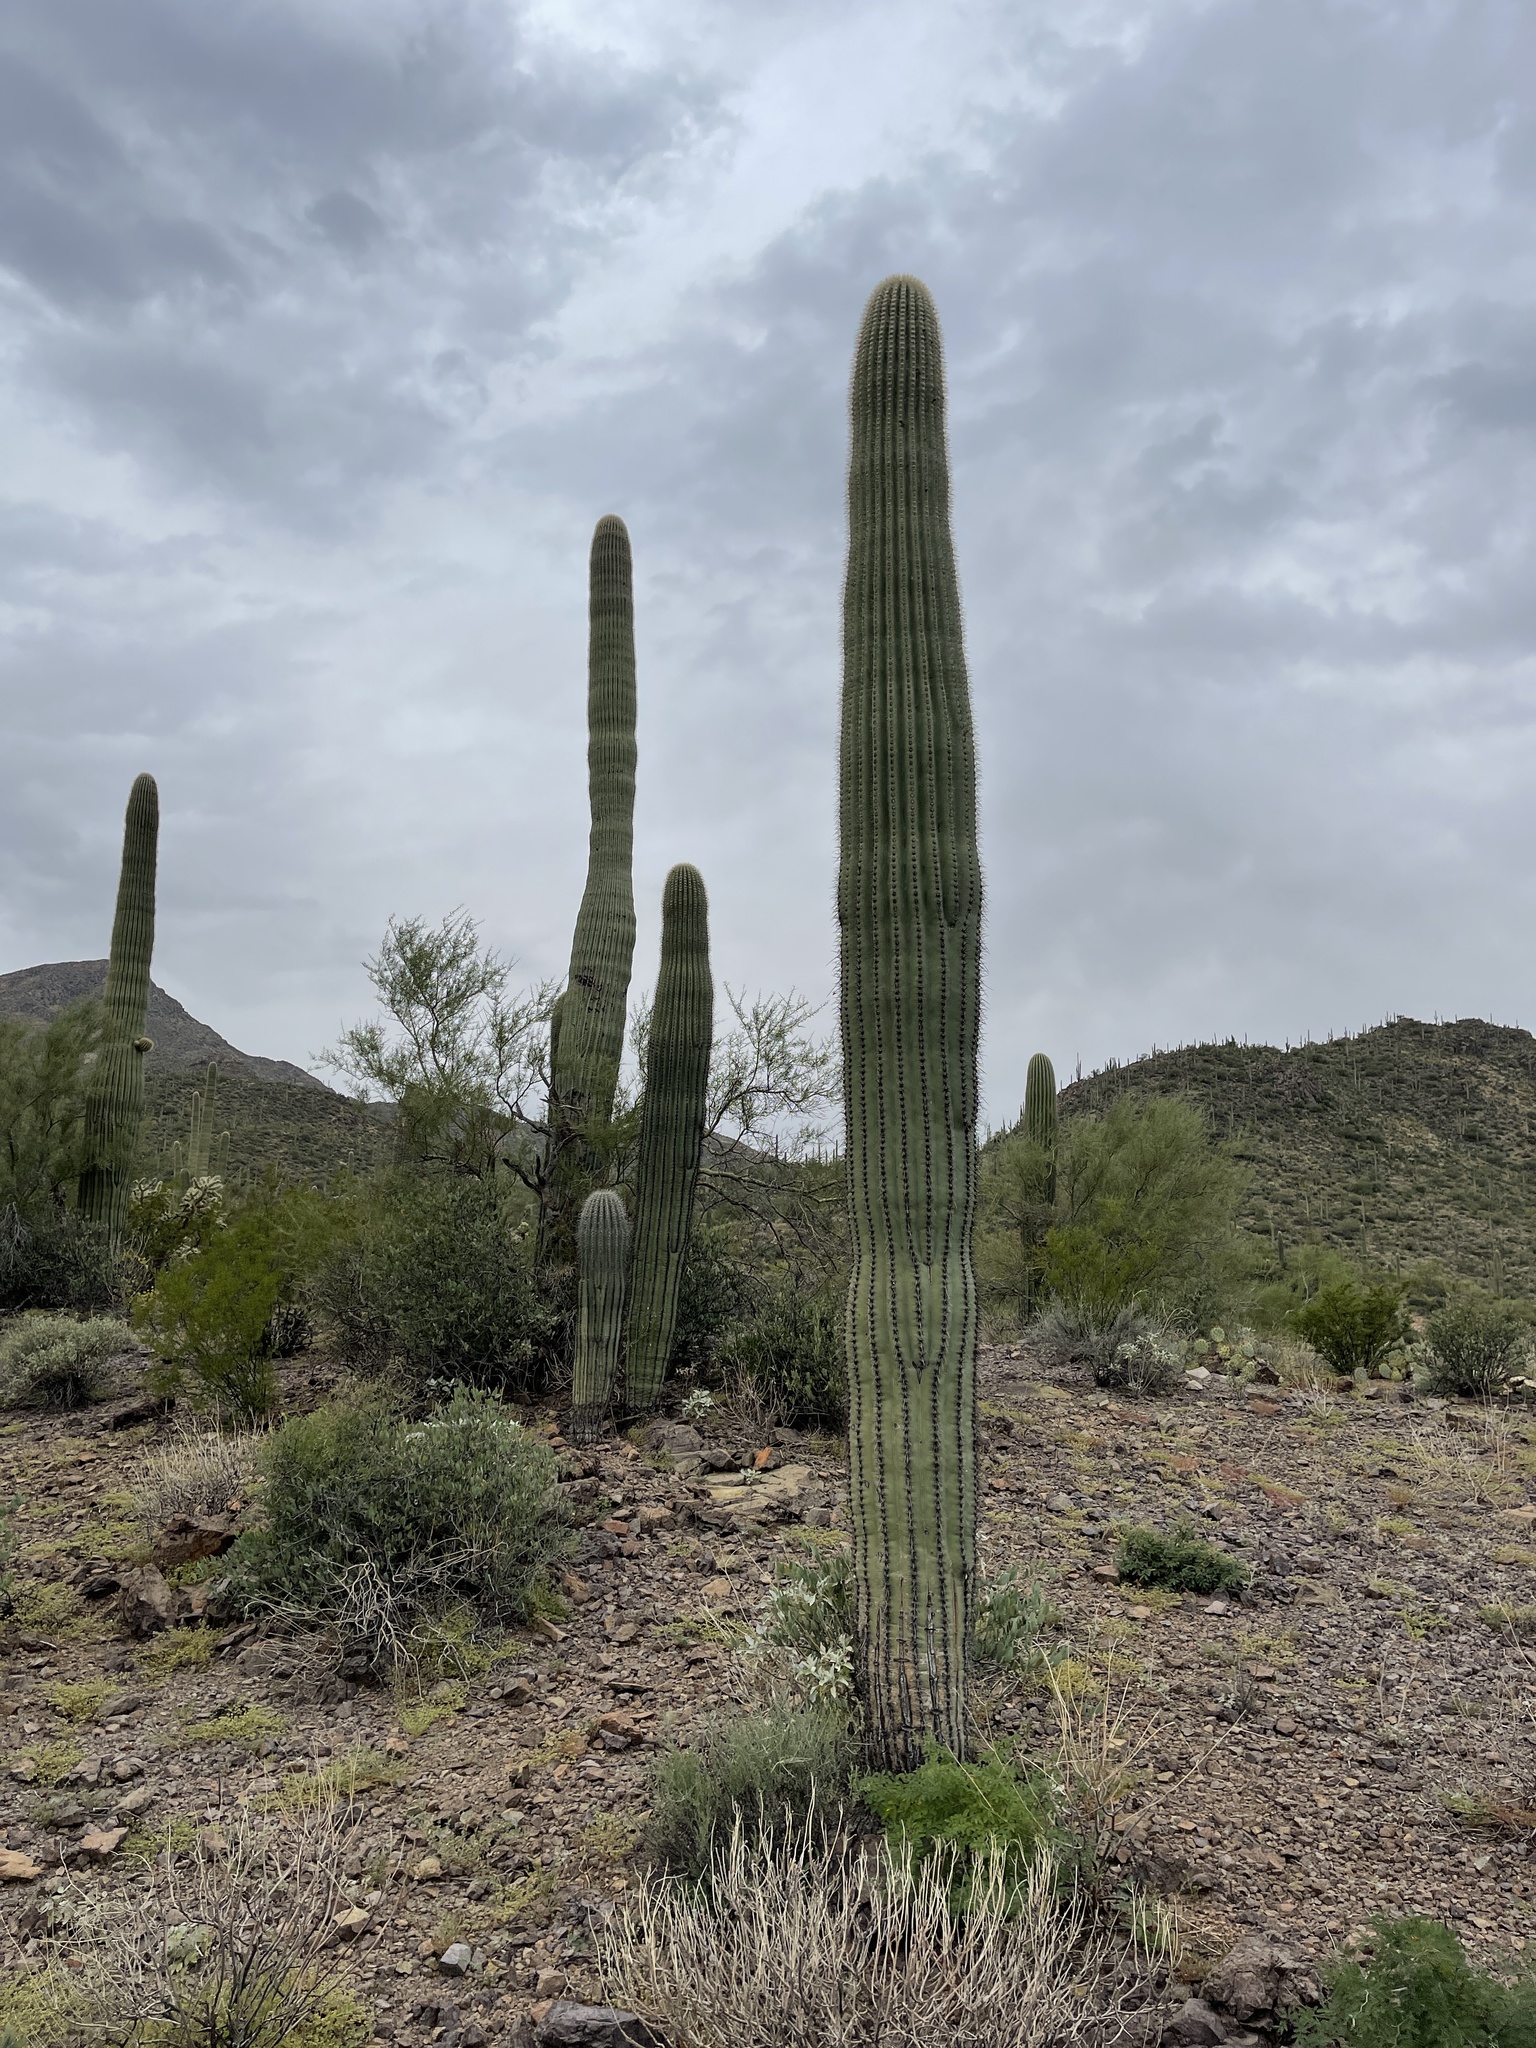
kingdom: Plantae
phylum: Tracheophyta
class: Magnoliopsida
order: Caryophyllales
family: Cactaceae
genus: Carnegiea
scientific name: Carnegiea gigantea
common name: Saguaro
